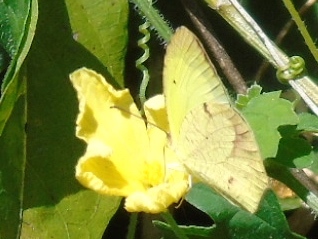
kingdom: Animalia
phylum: Arthropoda
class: Insecta
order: Lepidoptera
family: Pieridae
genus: Abaeis
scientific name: Abaeis boisduvaliana
